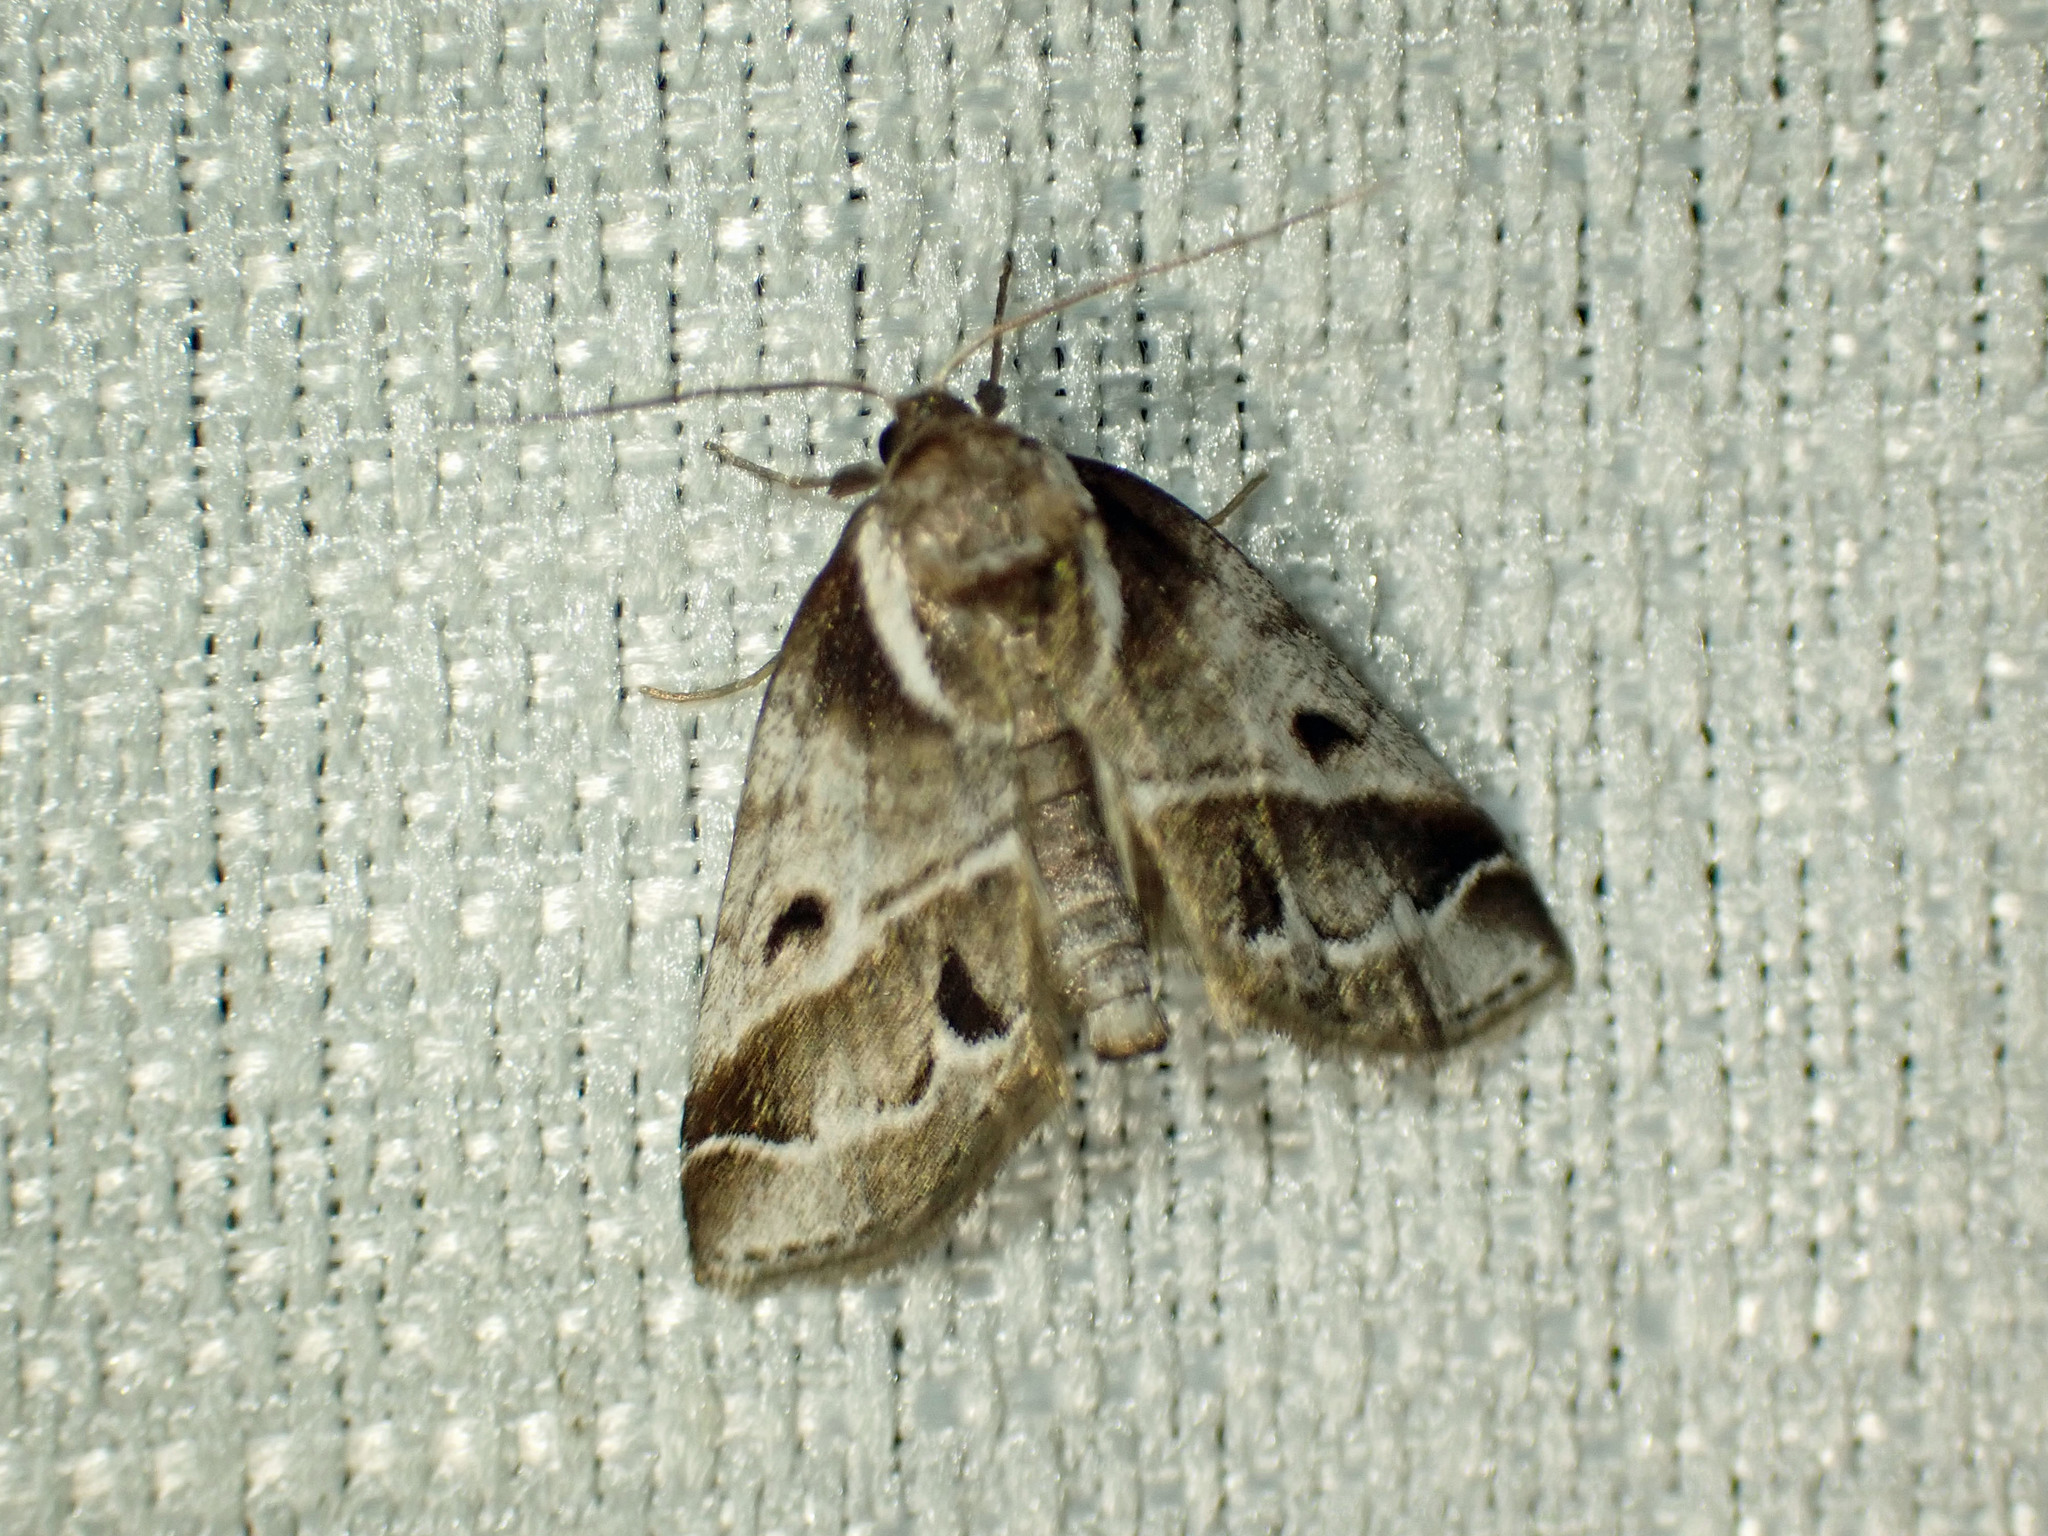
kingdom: Animalia
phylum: Arthropoda
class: Insecta
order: Lepidoptera
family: Nolidae
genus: Baileya
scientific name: Baileya doubledayi
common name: Doubleday's baileya moth
